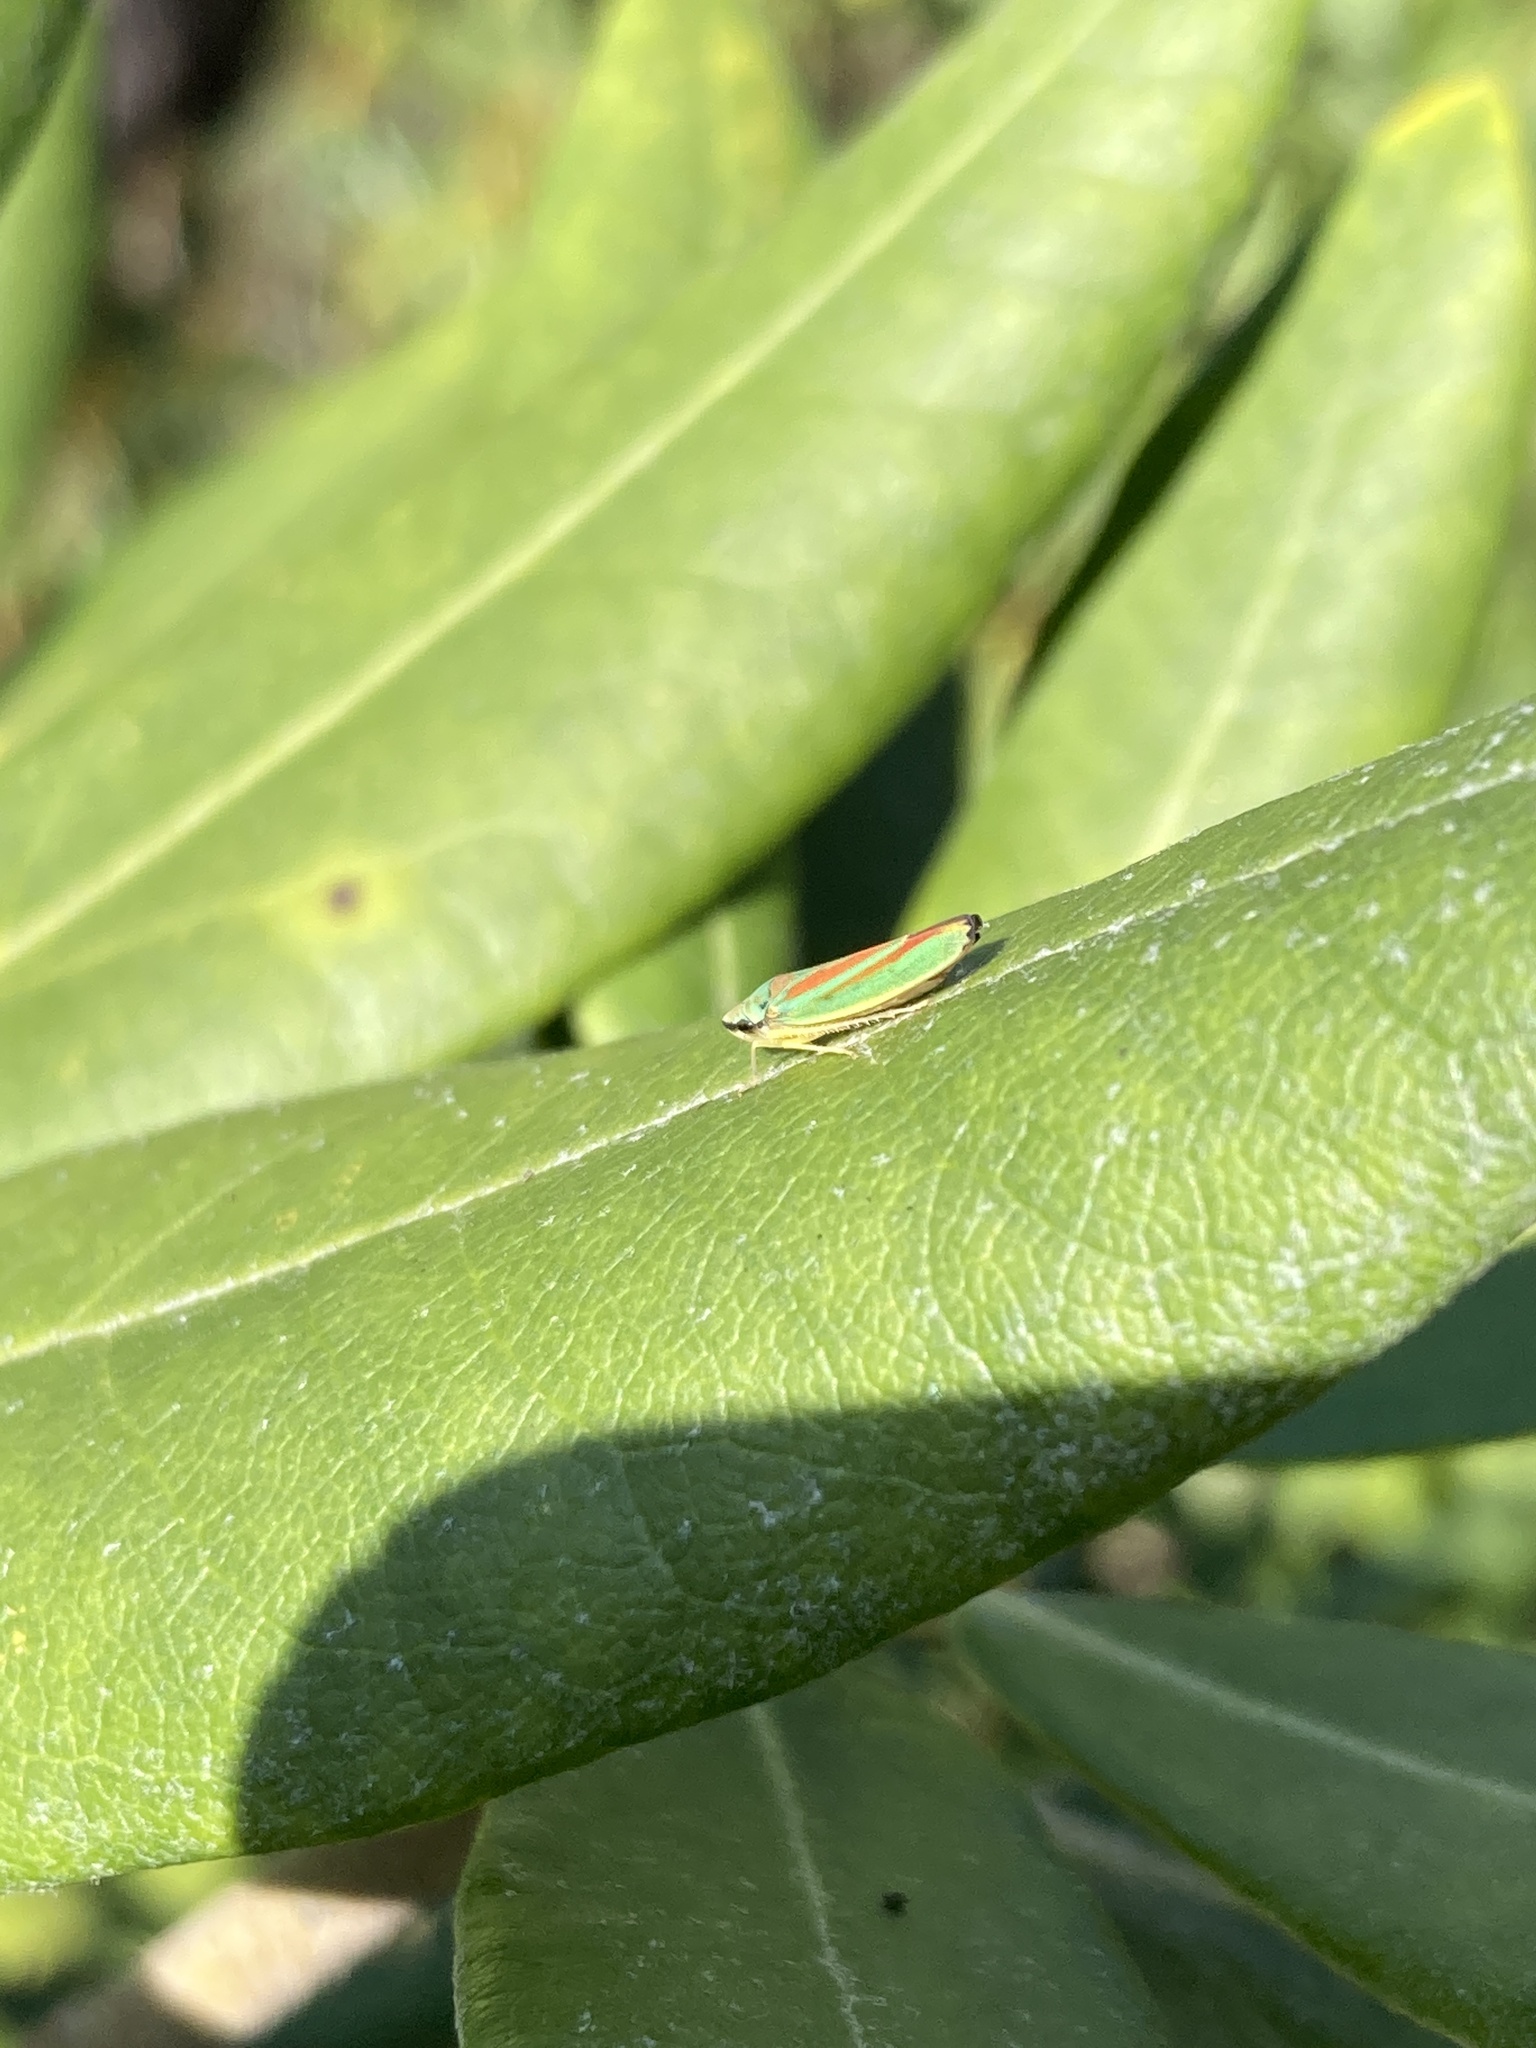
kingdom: Animalia
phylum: Arthropoda
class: Insecta
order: Hemiptera
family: Cicadellidae
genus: Graphocephala
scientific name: Graphocephala fennahi
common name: Rhododendron leafhopper
